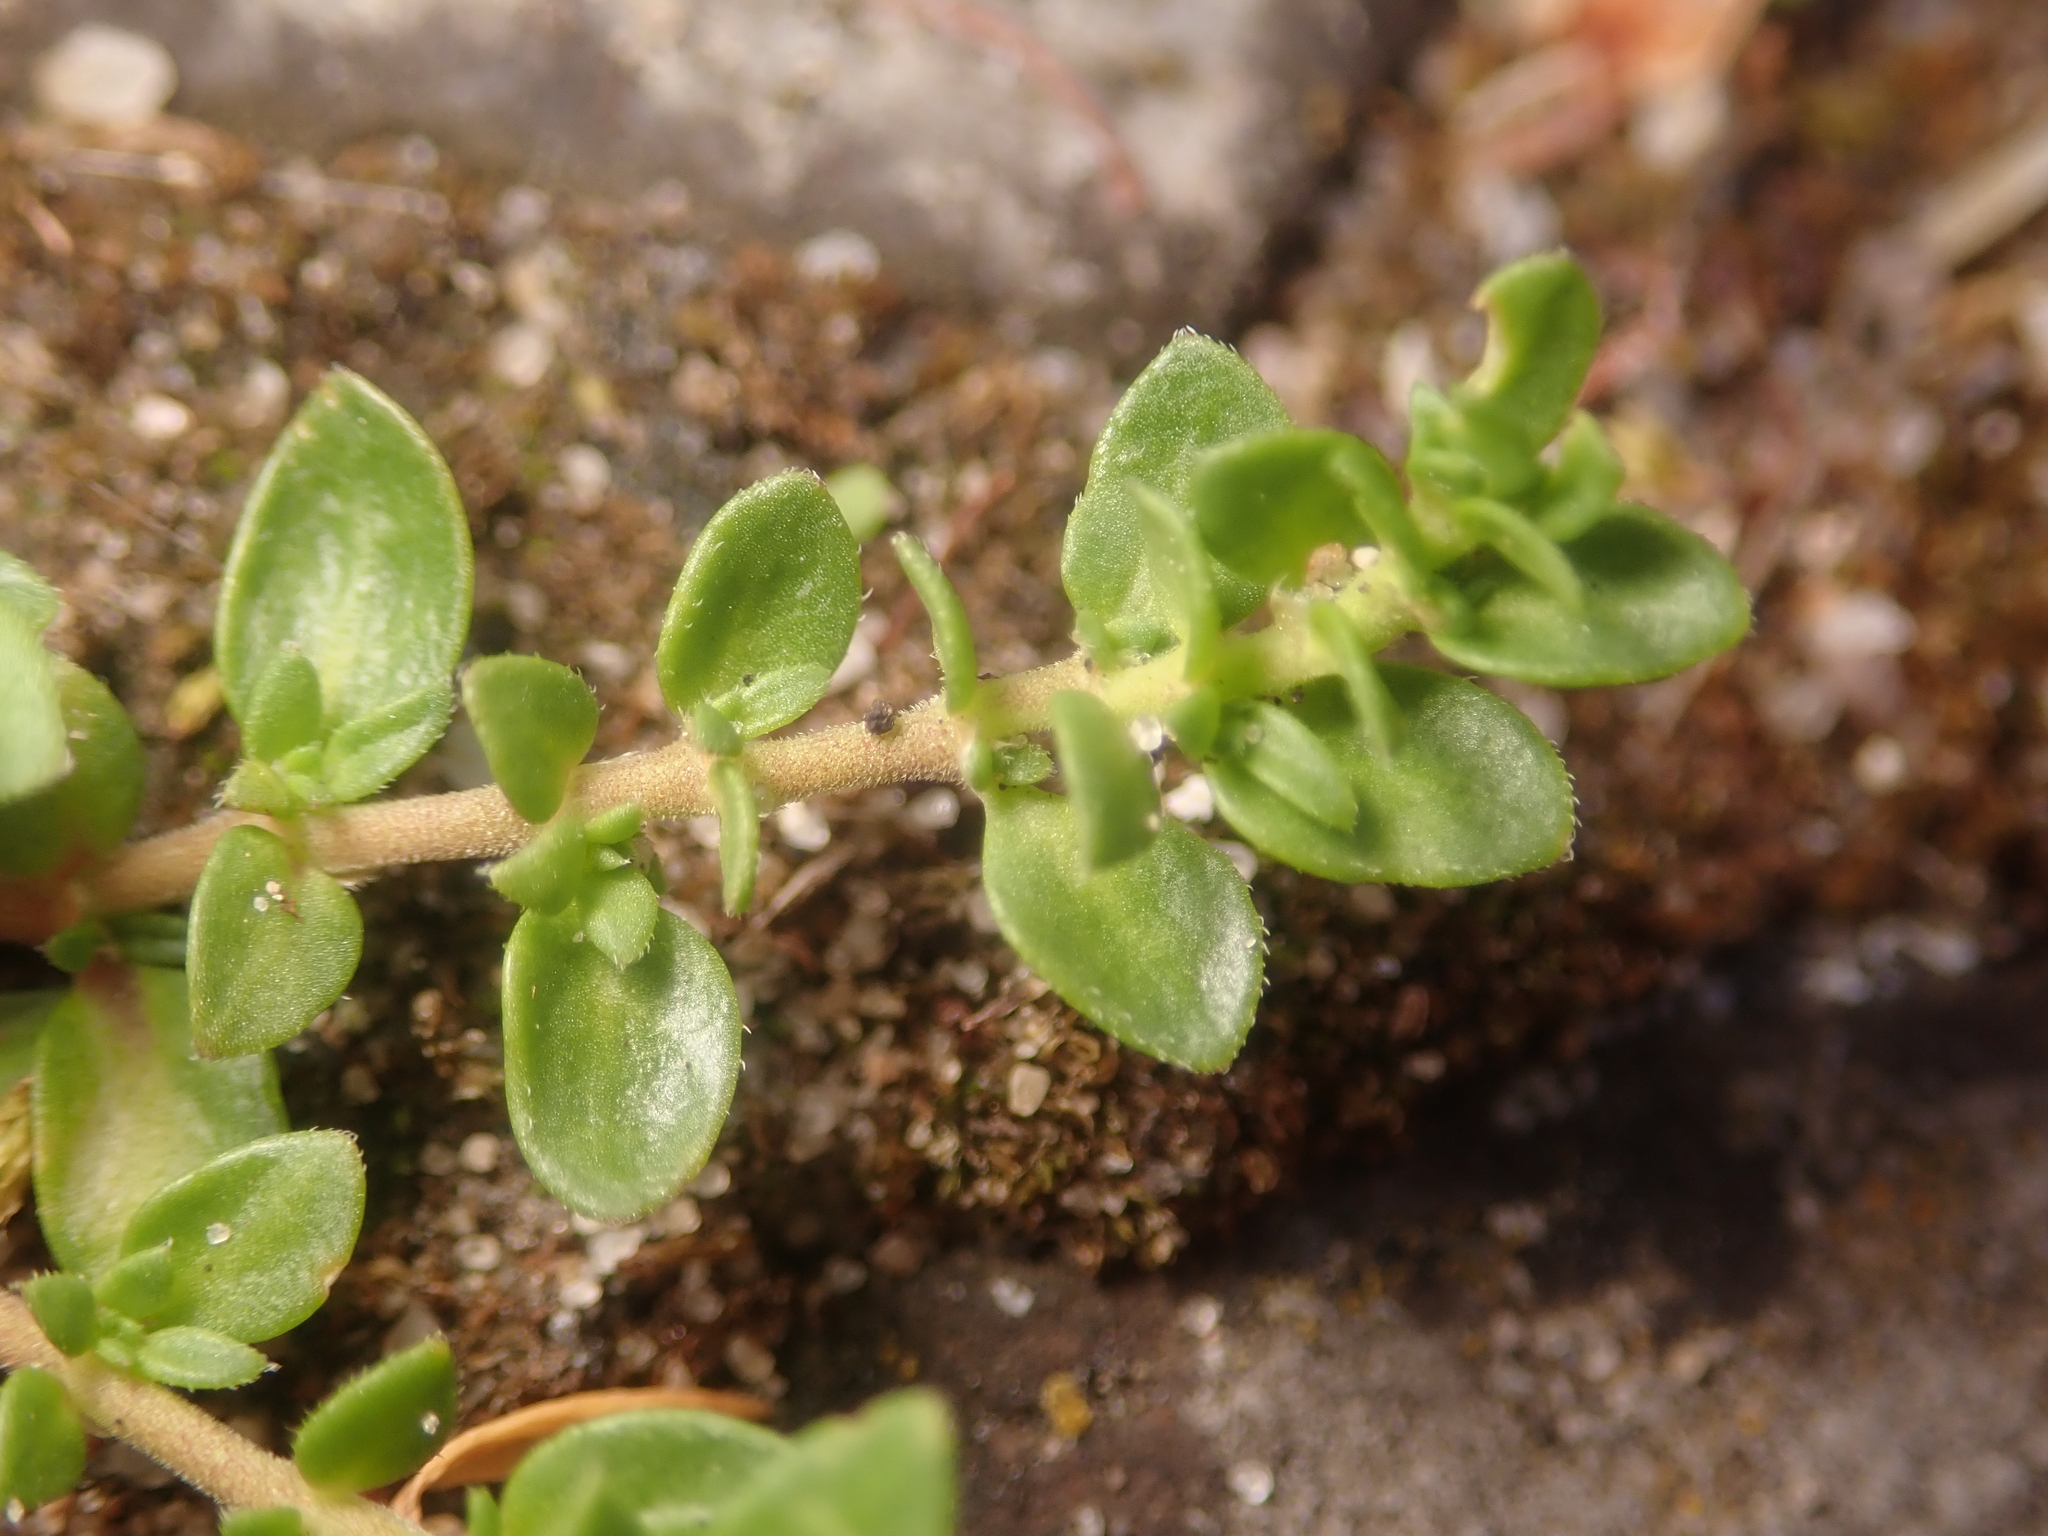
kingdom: Plantae
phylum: Tracheophyta
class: Magnoliopsida
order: Caryophyllales
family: Caryophyllaceae
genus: Herniaria
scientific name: Herniaria glabra
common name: Smooth rupturewort
